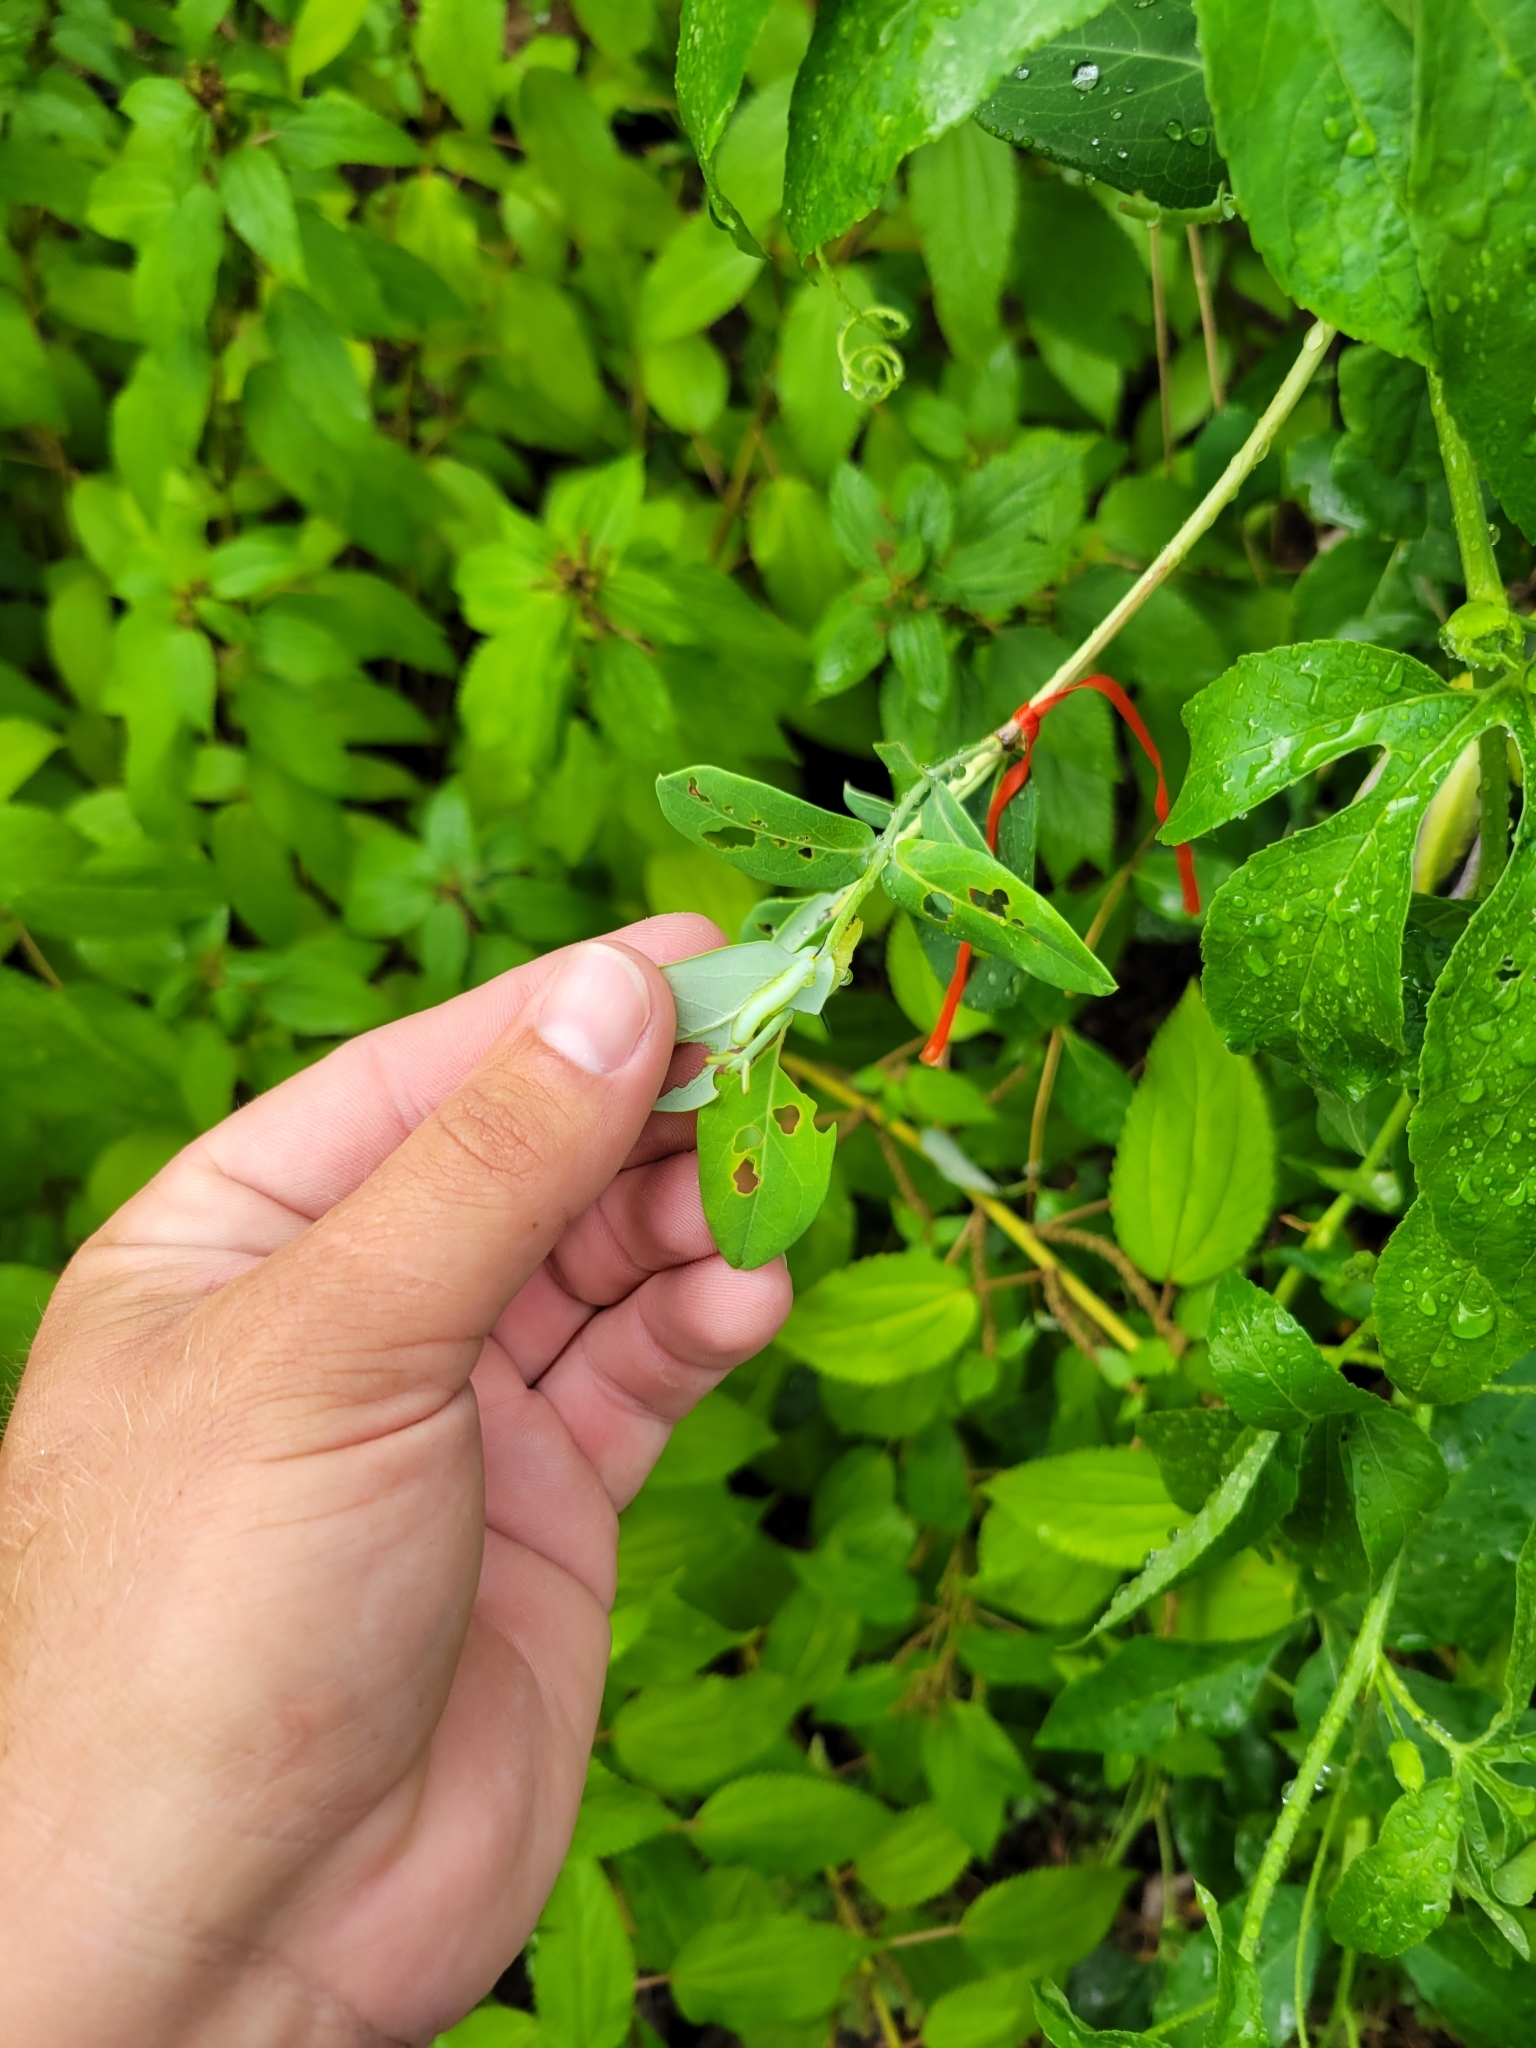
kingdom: Animalia
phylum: Arthropoda
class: Insecta
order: Lepidoptera
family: Sphingidae
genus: Hemaris
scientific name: Hemaris diffinis
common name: Bumblebee moth
